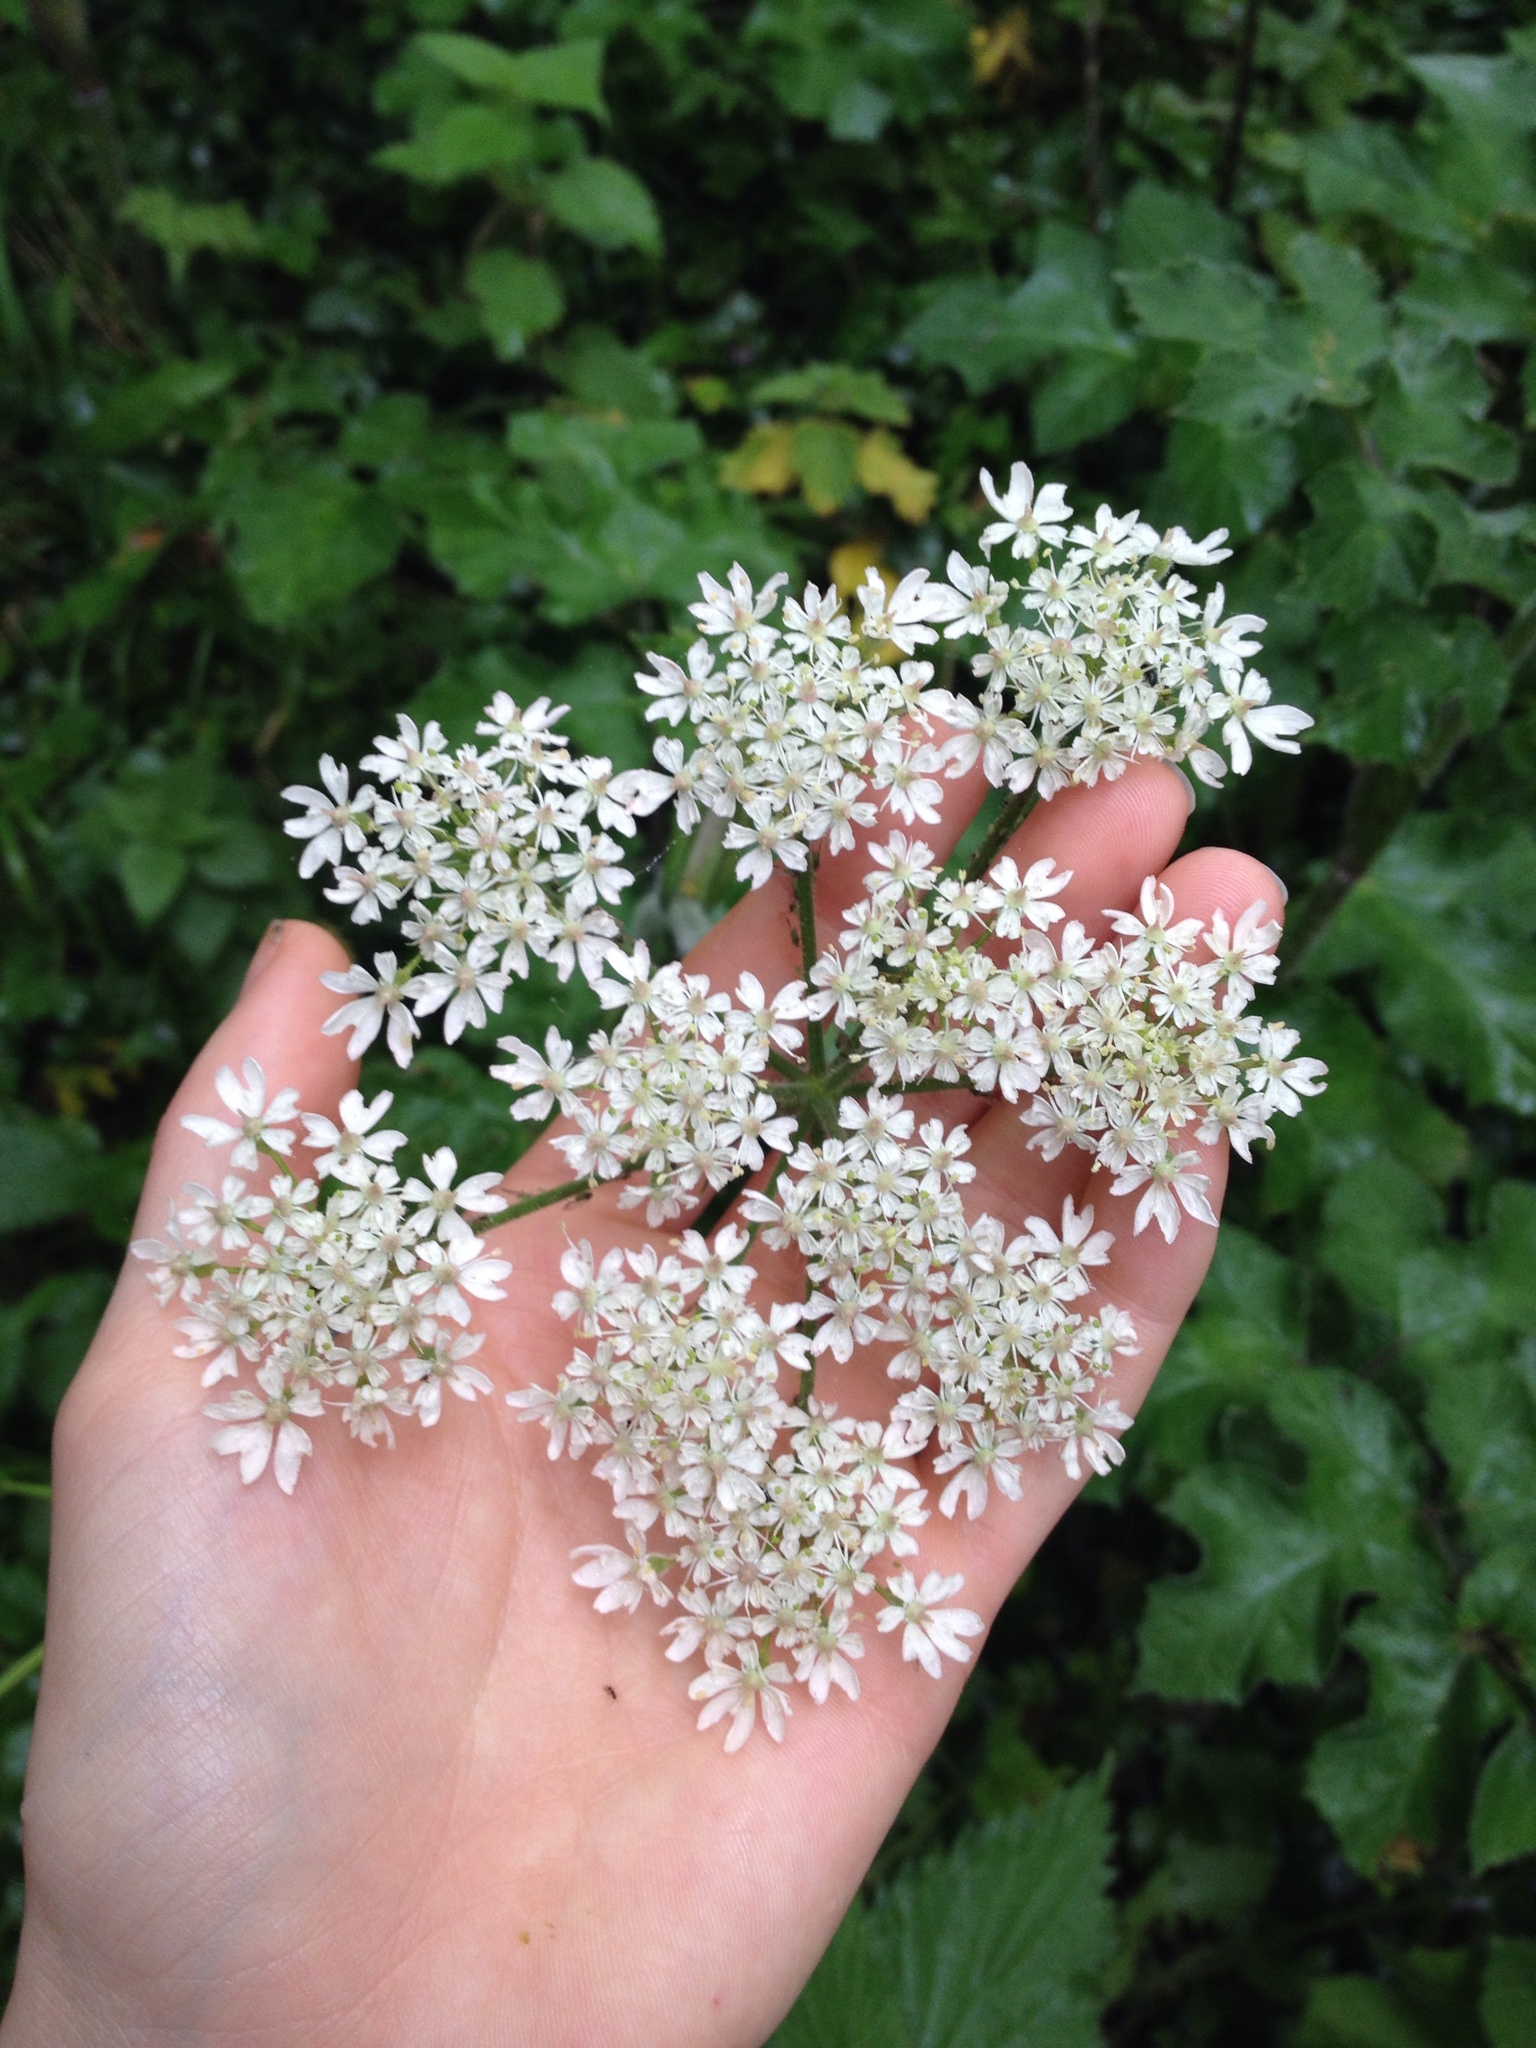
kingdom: Plantae
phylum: Tracheophyta
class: Magnoliopsida
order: Apiales
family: Apiaceae
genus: Heracleum
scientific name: Heracleum sphondylium
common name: Hogweed
